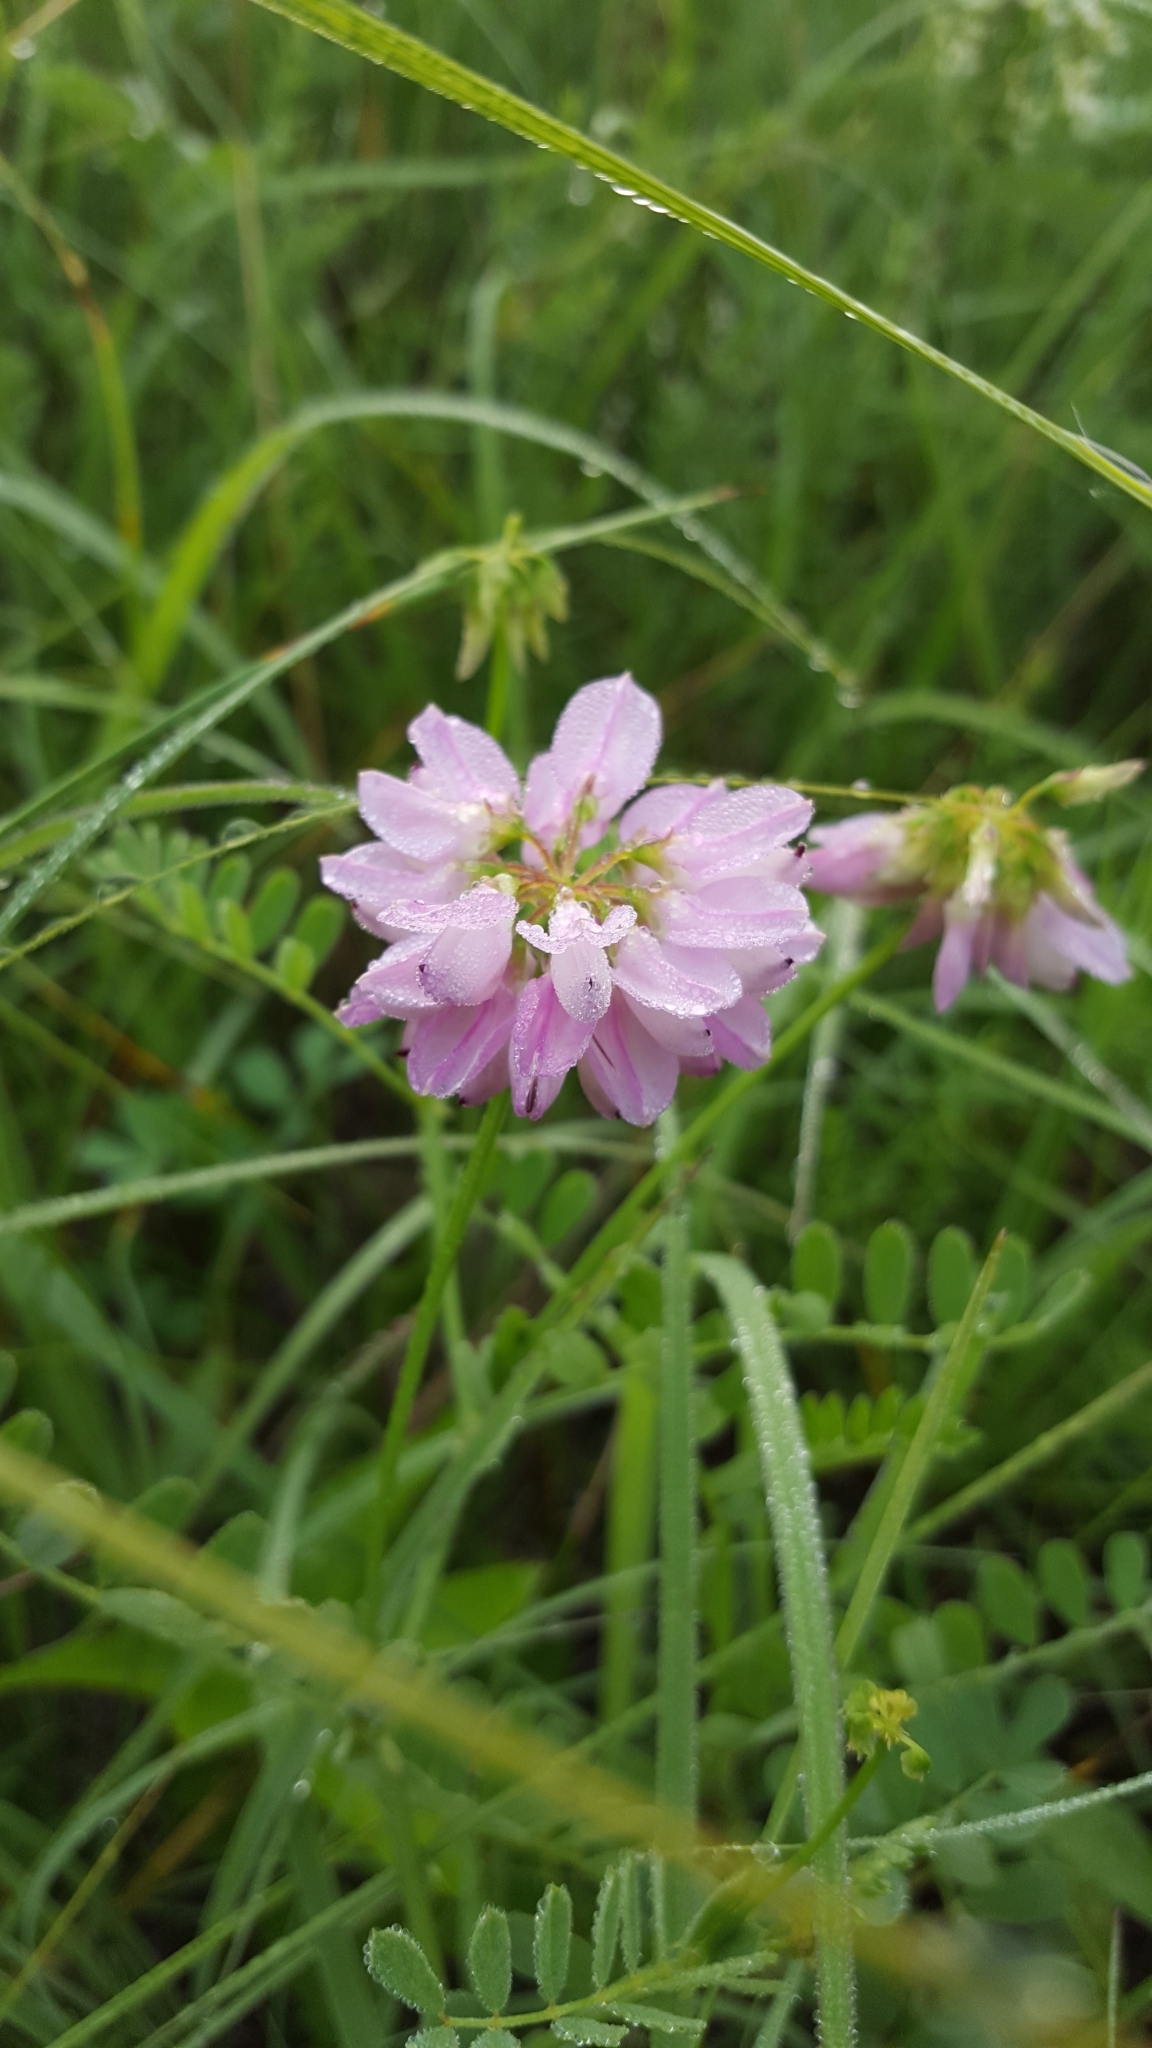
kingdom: Plantae
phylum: Tracheophyta
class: Magnoliopsida
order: Fabales
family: Fabaceae
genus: Coronilla
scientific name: Coronilla varia
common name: Crownvetch
